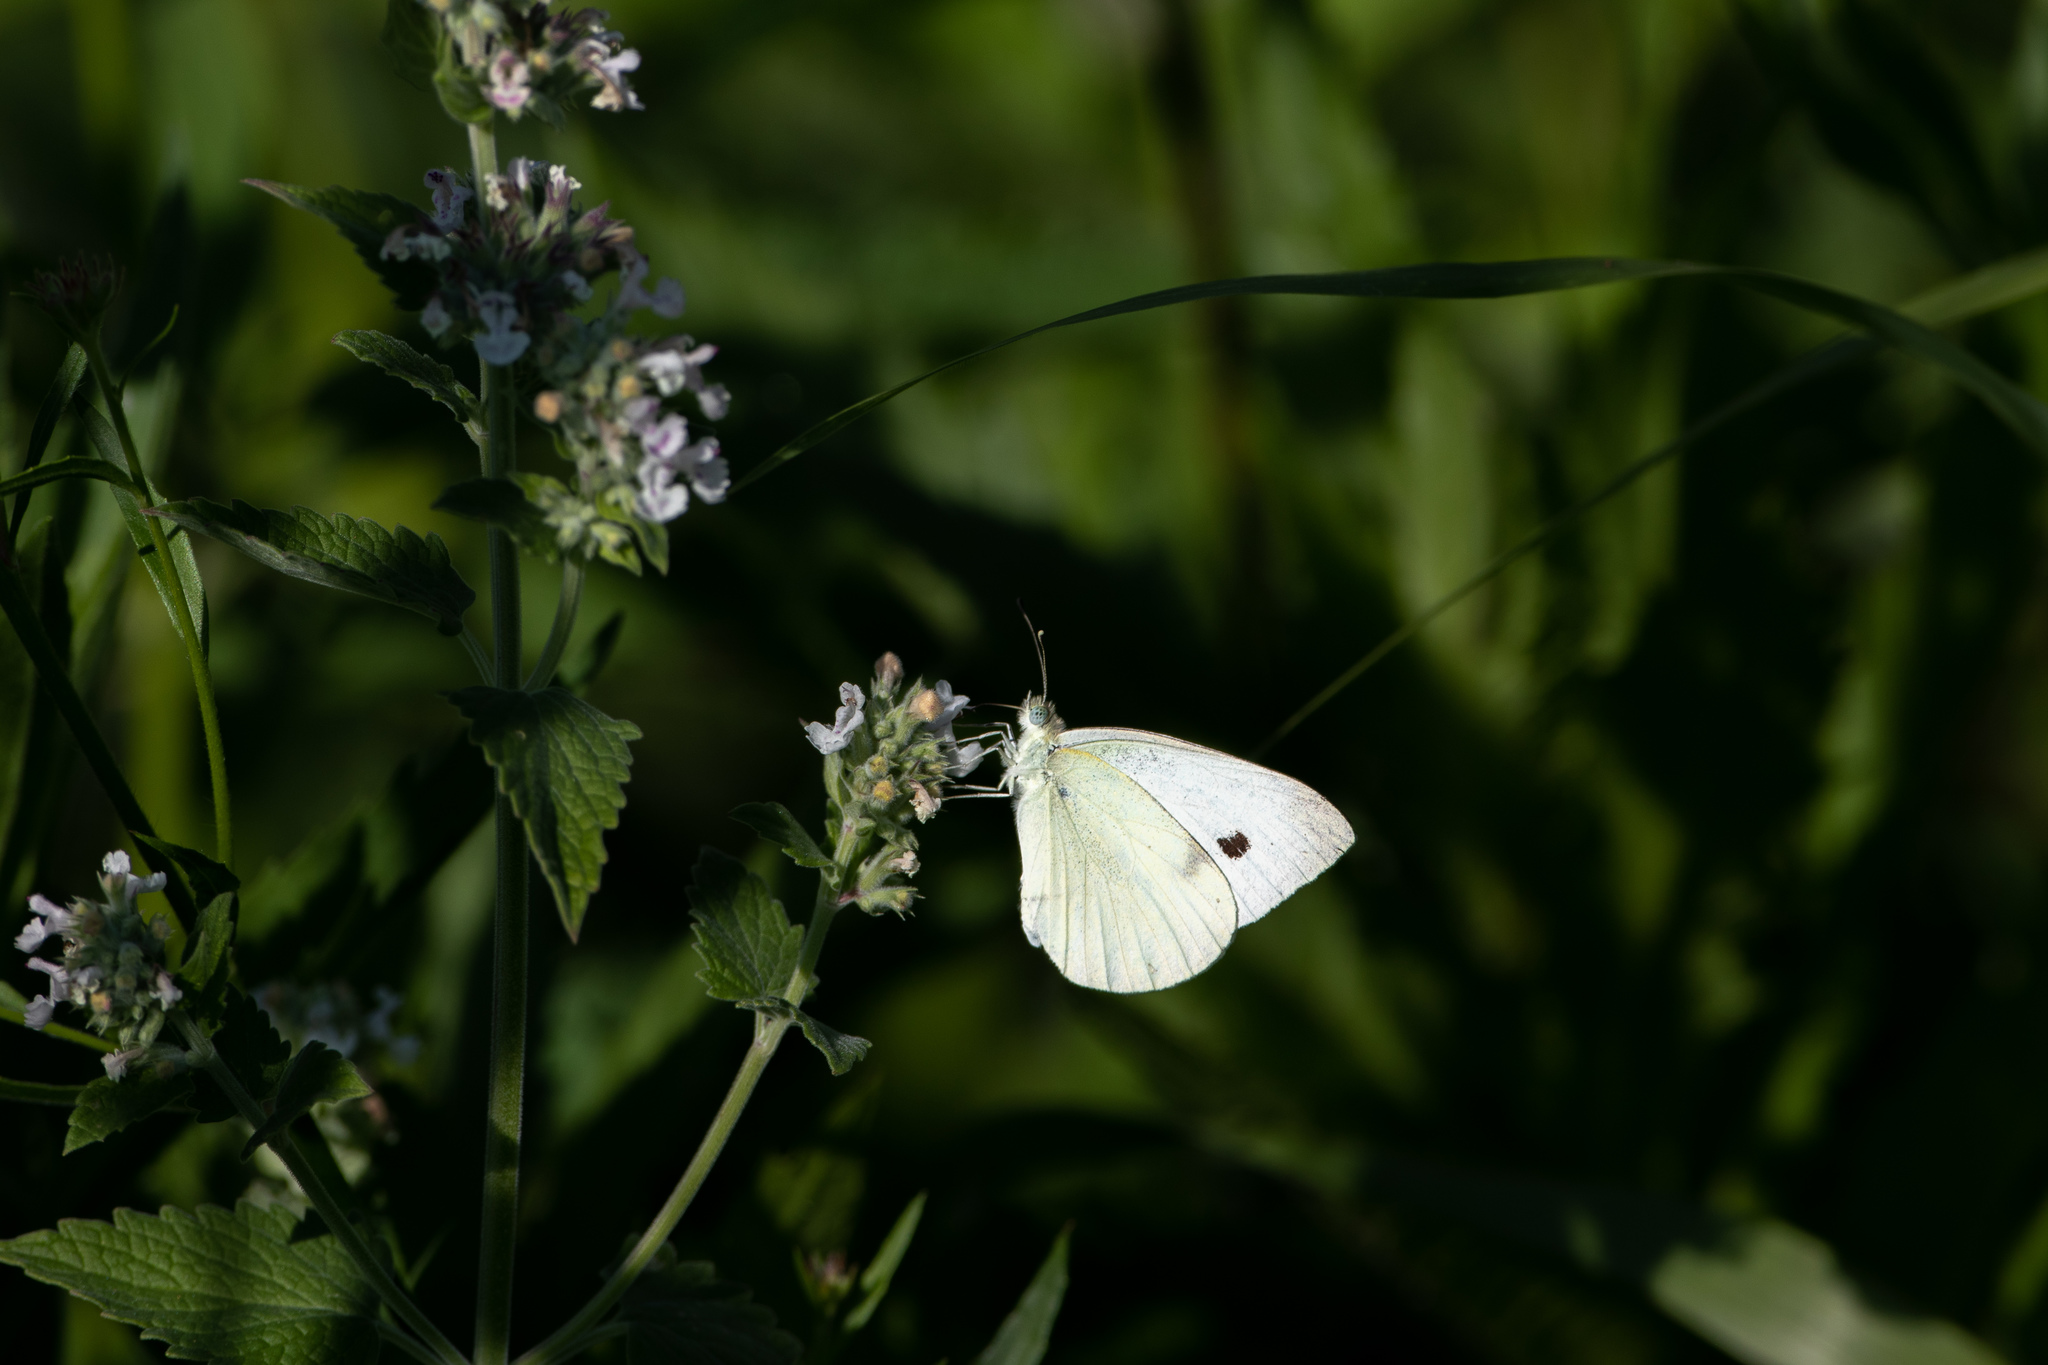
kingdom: Animalia
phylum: Arthropoda
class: Insecta
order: Lepidoptera
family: Pieridae
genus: Pieris
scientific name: Pieris rapae
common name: Small white
